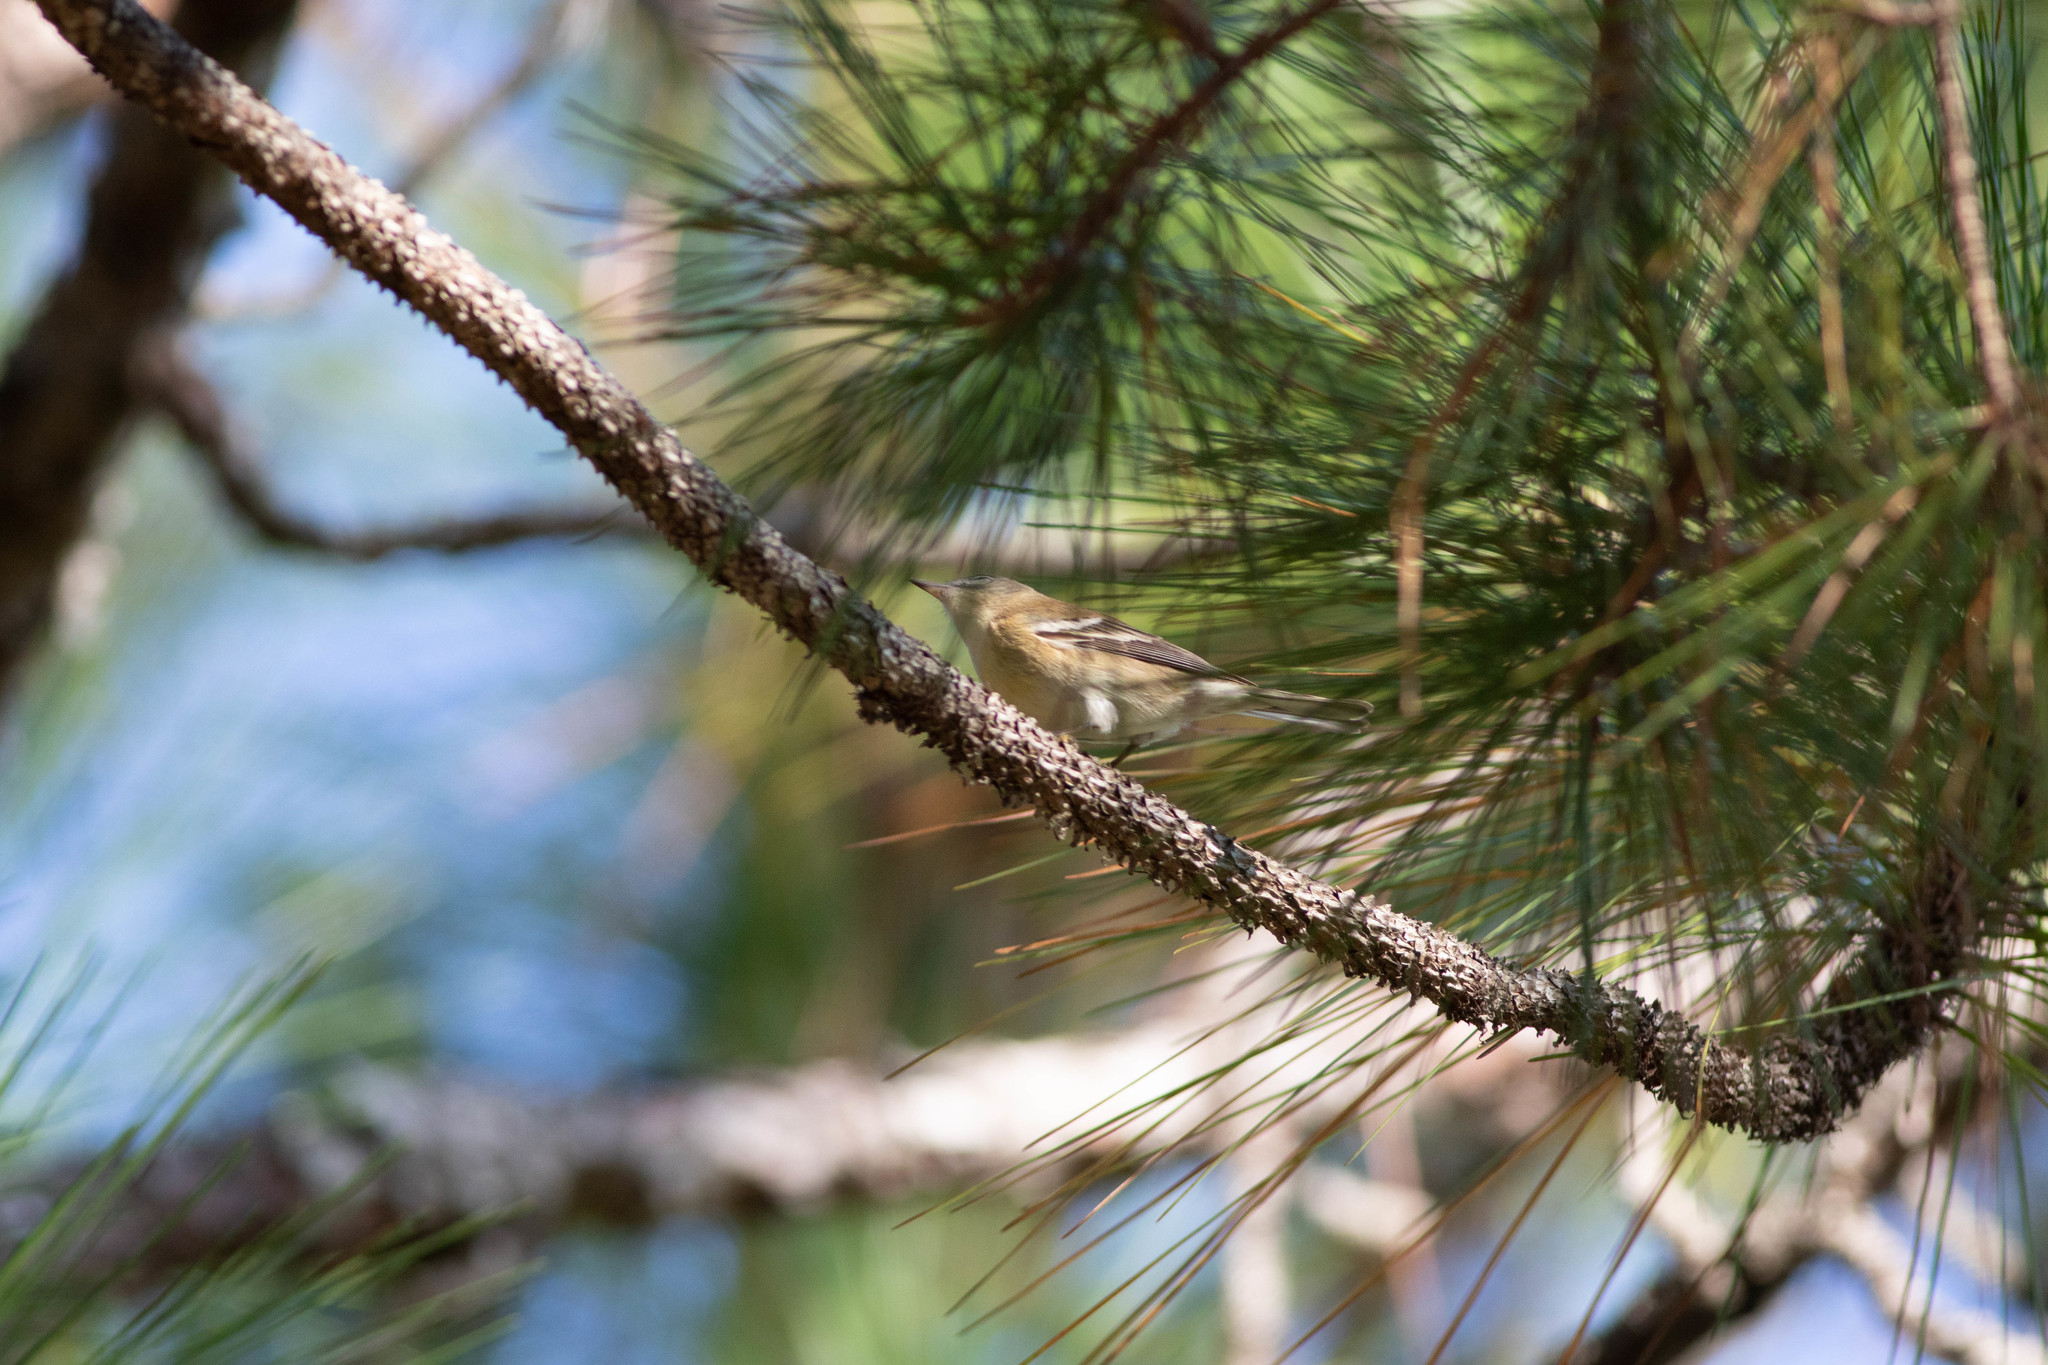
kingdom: Animalia
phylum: Chordata
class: Aves
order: Passeriformes
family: Parulidae
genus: Setophaga
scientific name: Setophaga pinus
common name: Pine warbler
